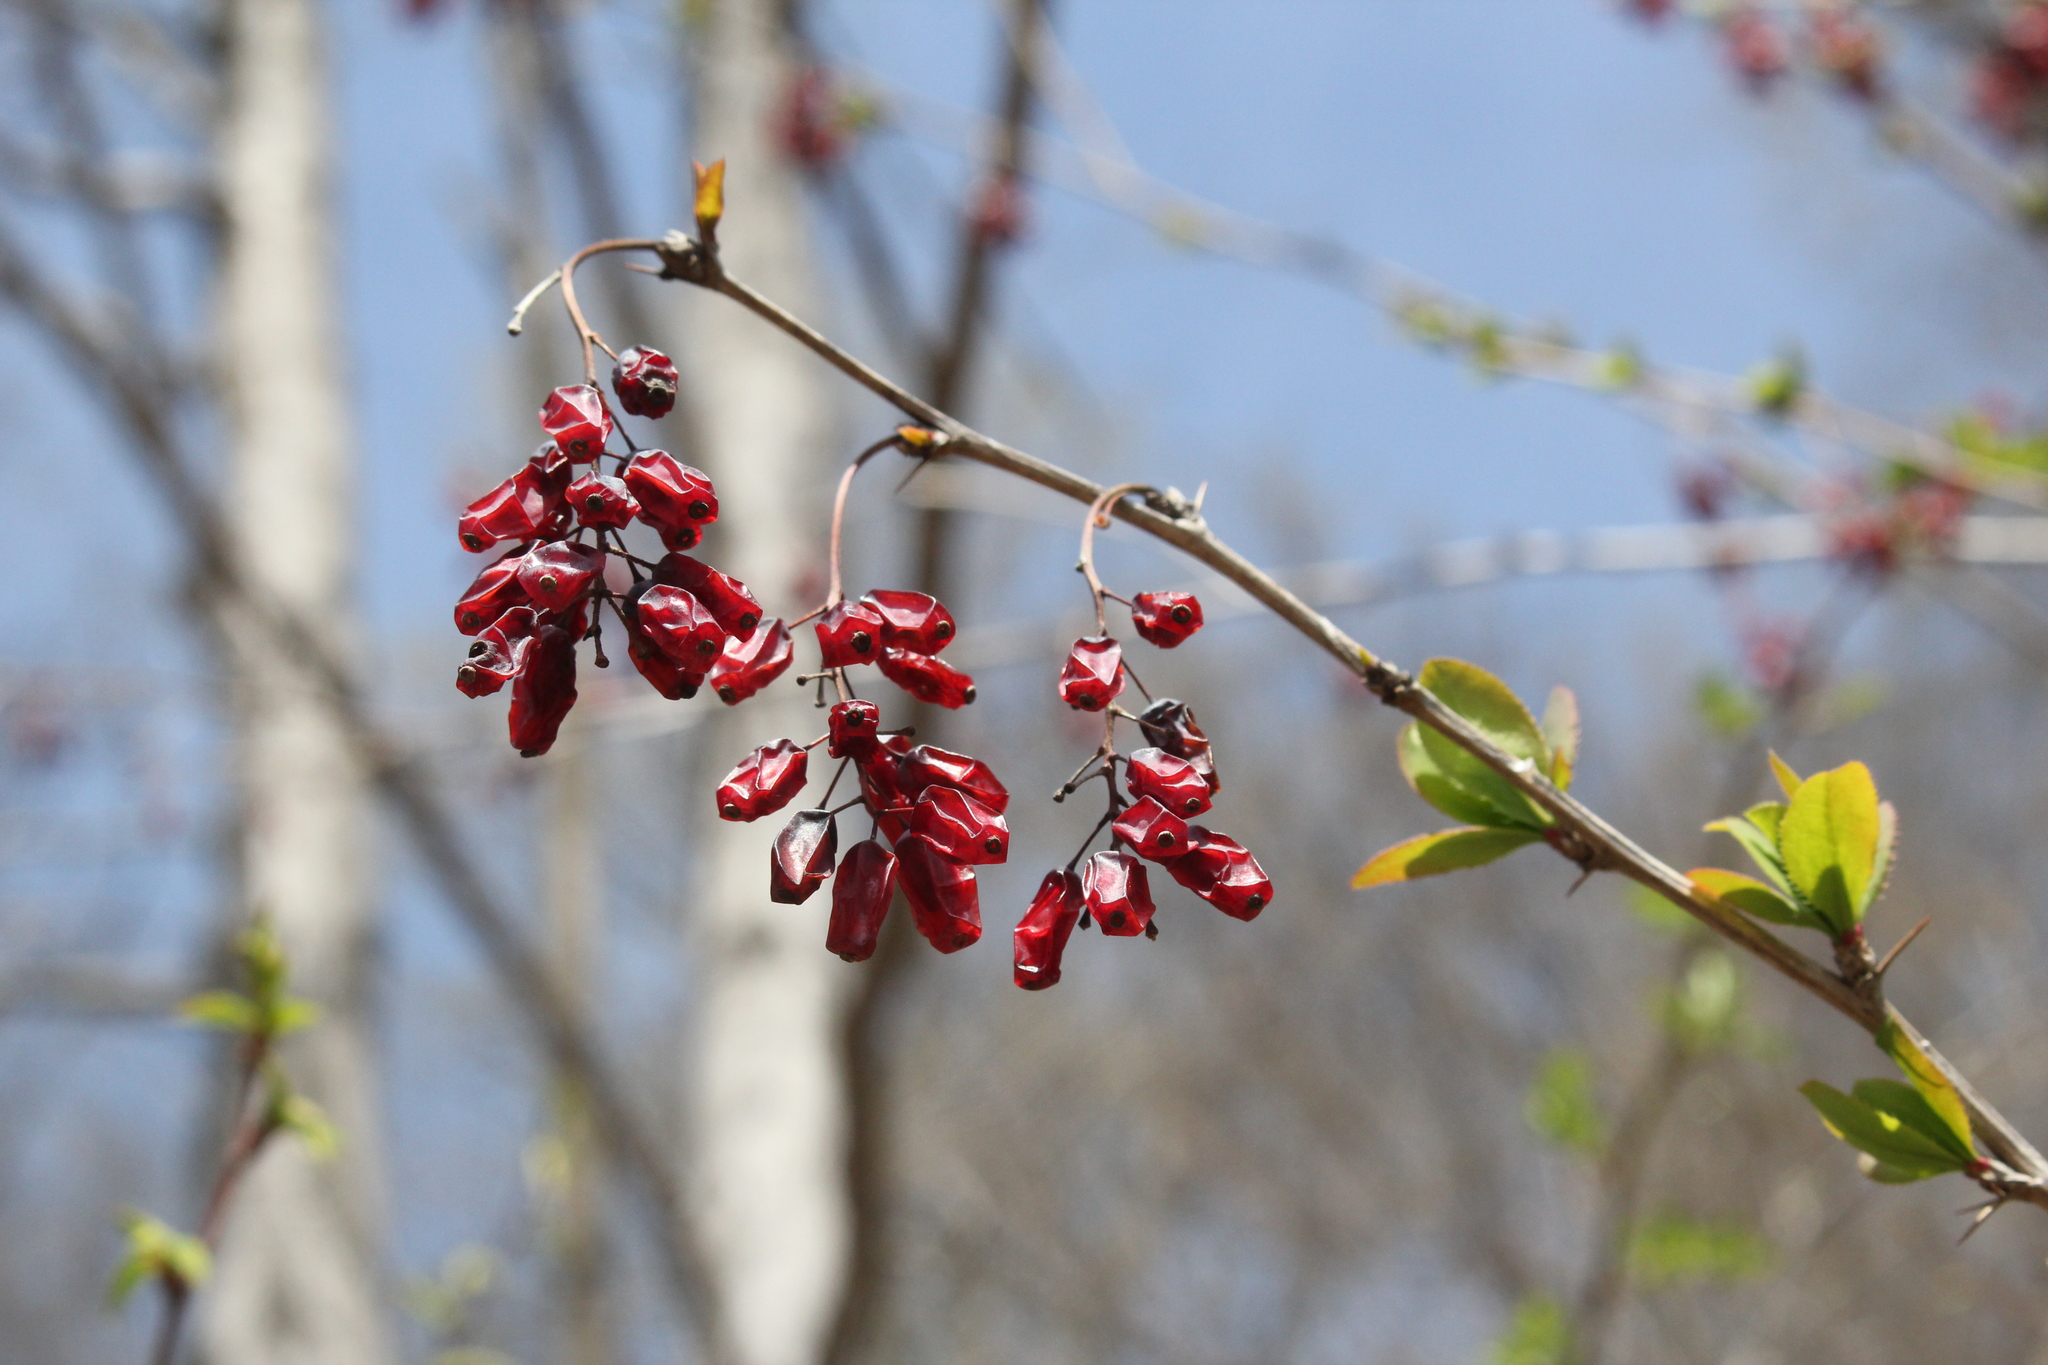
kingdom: Plantae
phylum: Tracheophyta
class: Magnoliopsida
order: Ranunculales
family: Berberidaceae
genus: Berberis
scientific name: Berberis vulgaris
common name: Barberry
